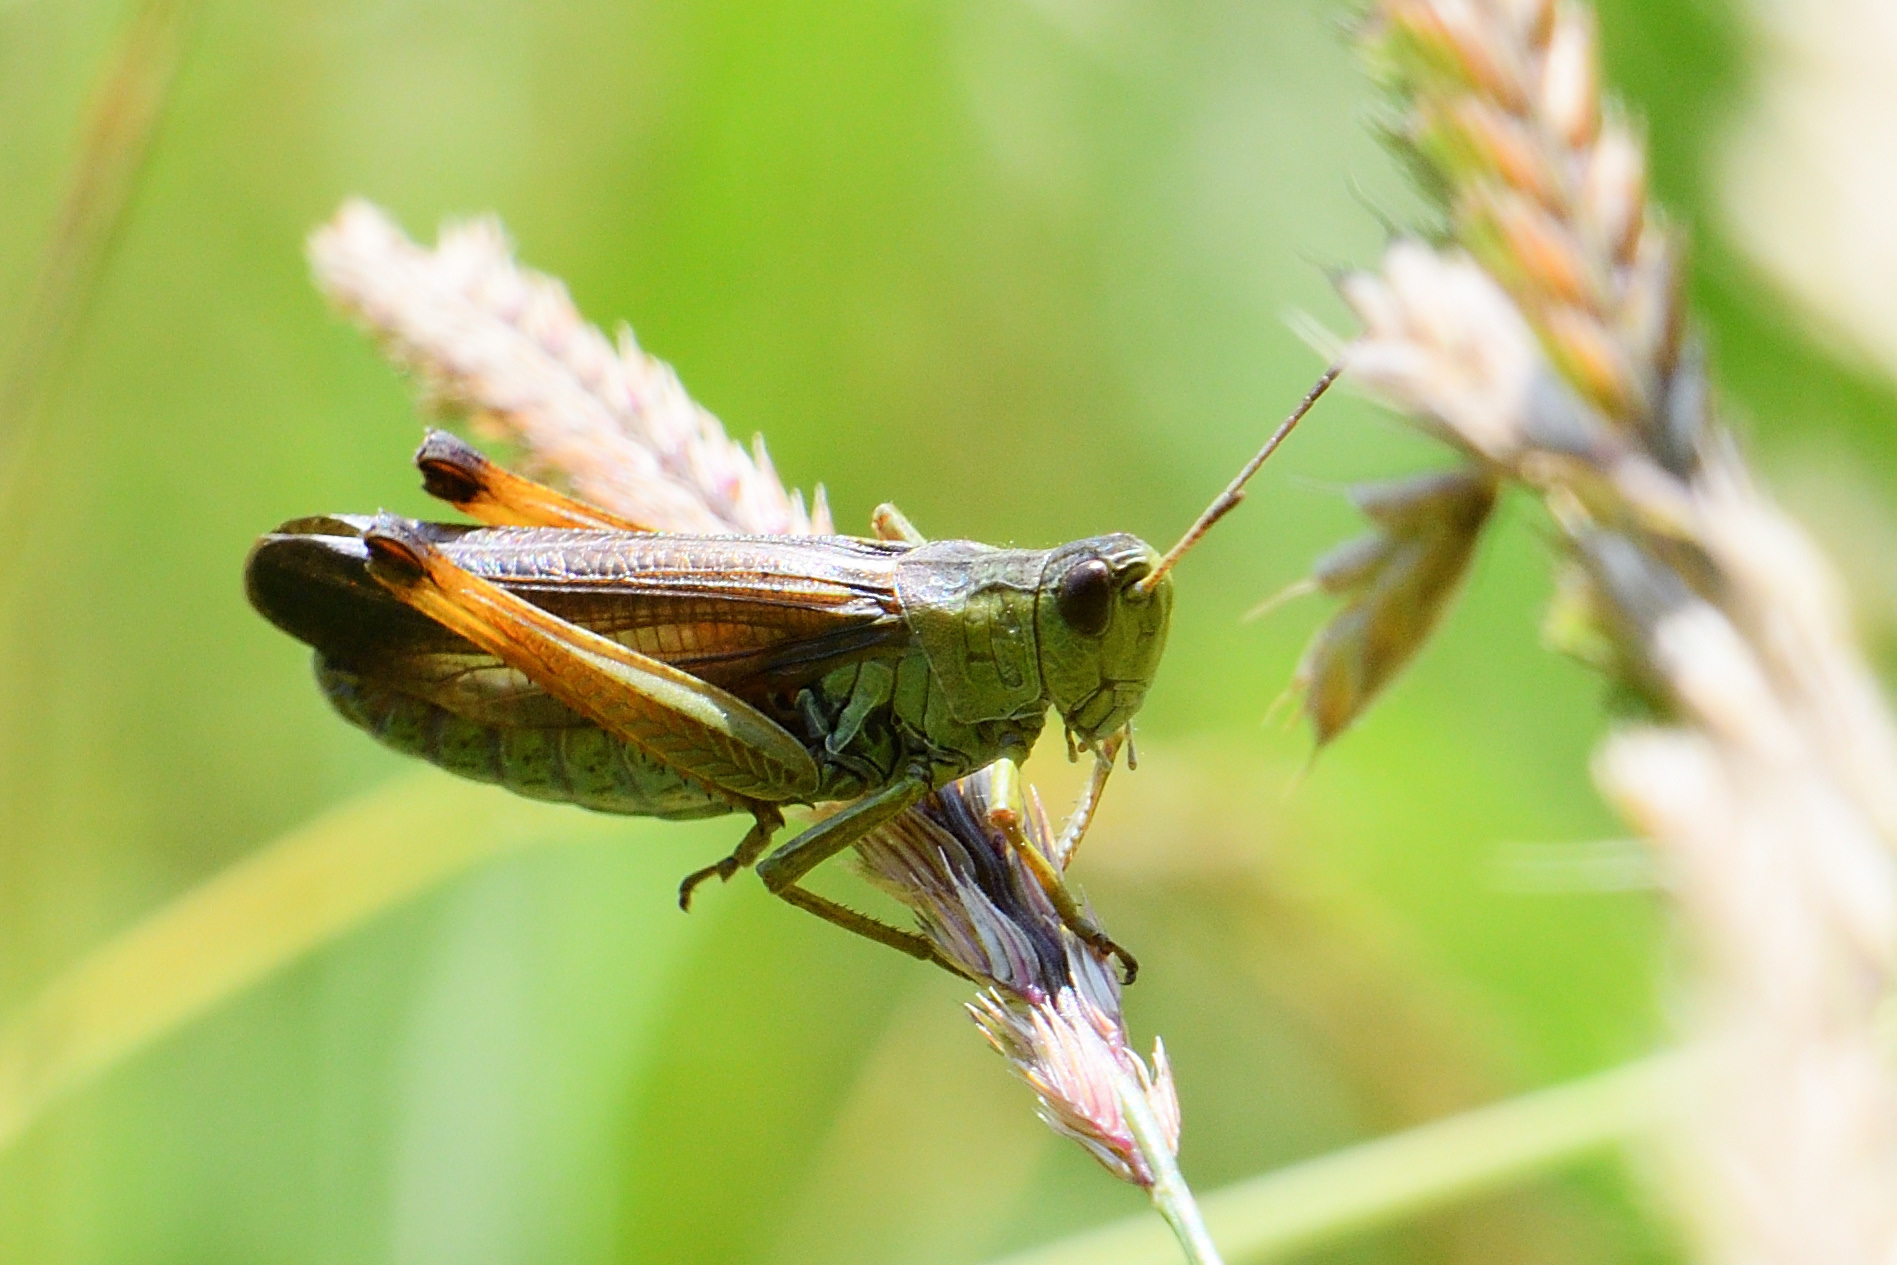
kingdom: Animalia
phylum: Arthropoda
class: Insecta
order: Orthoptera
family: Acrididae
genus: Stauroderus
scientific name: Stauroderus scalaris
